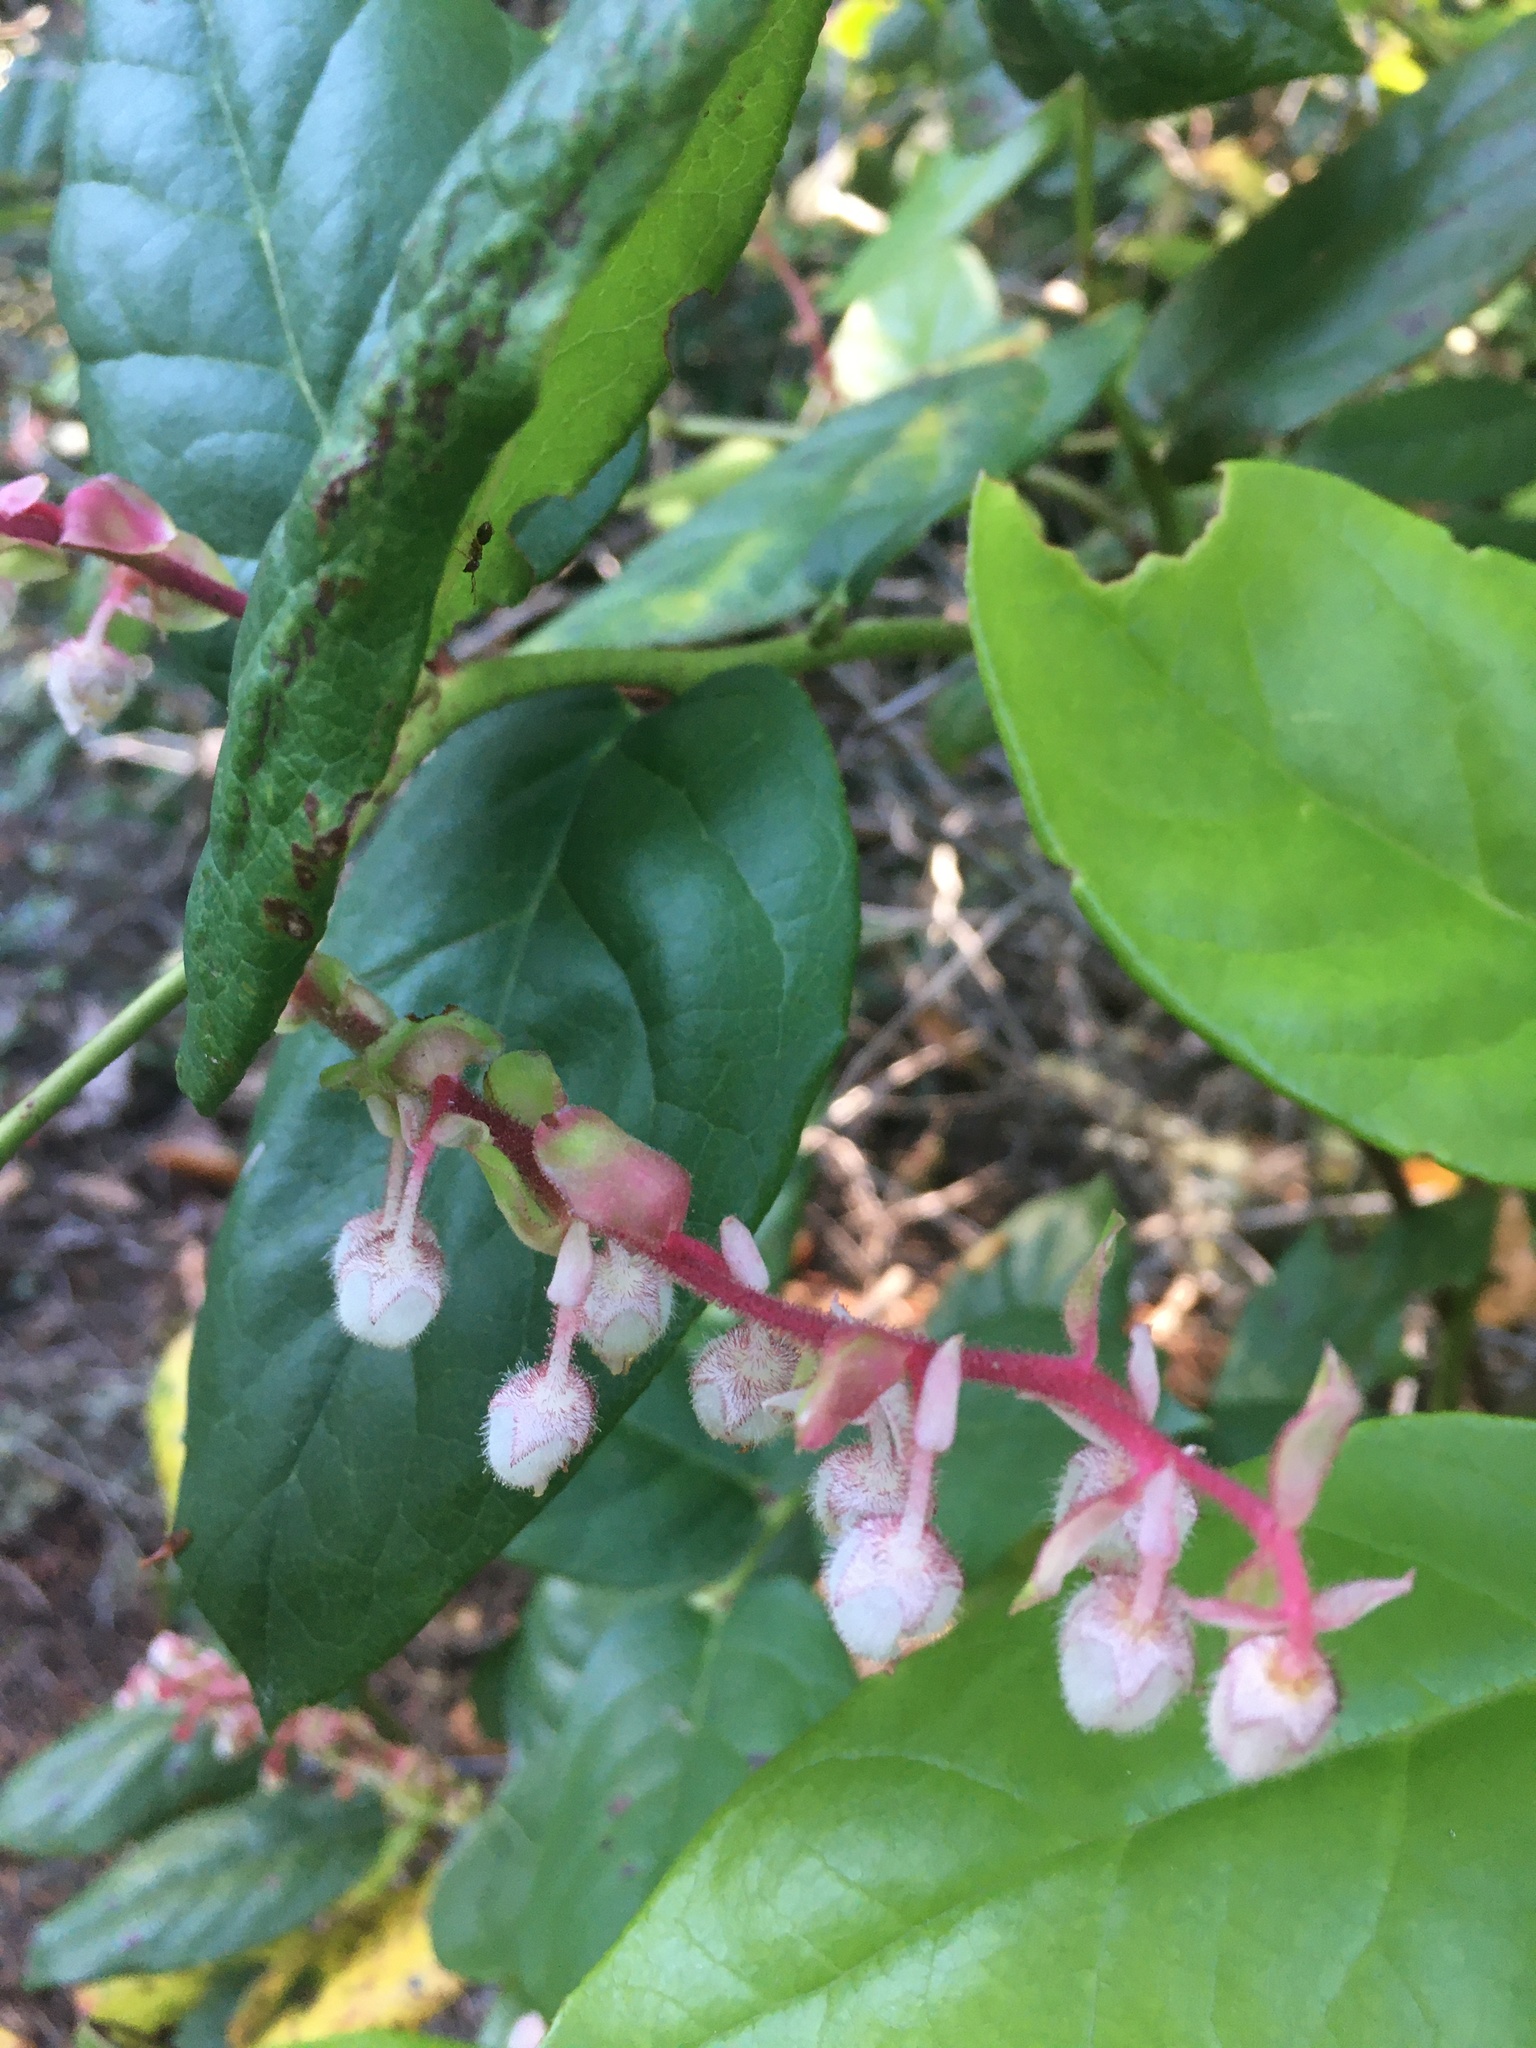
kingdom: Plantae
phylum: Tracheophyta
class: Magnoliopsida
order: Ericales
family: Ericaceae
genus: Gaultheria
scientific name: Gaultheria shallon
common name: Shallon
